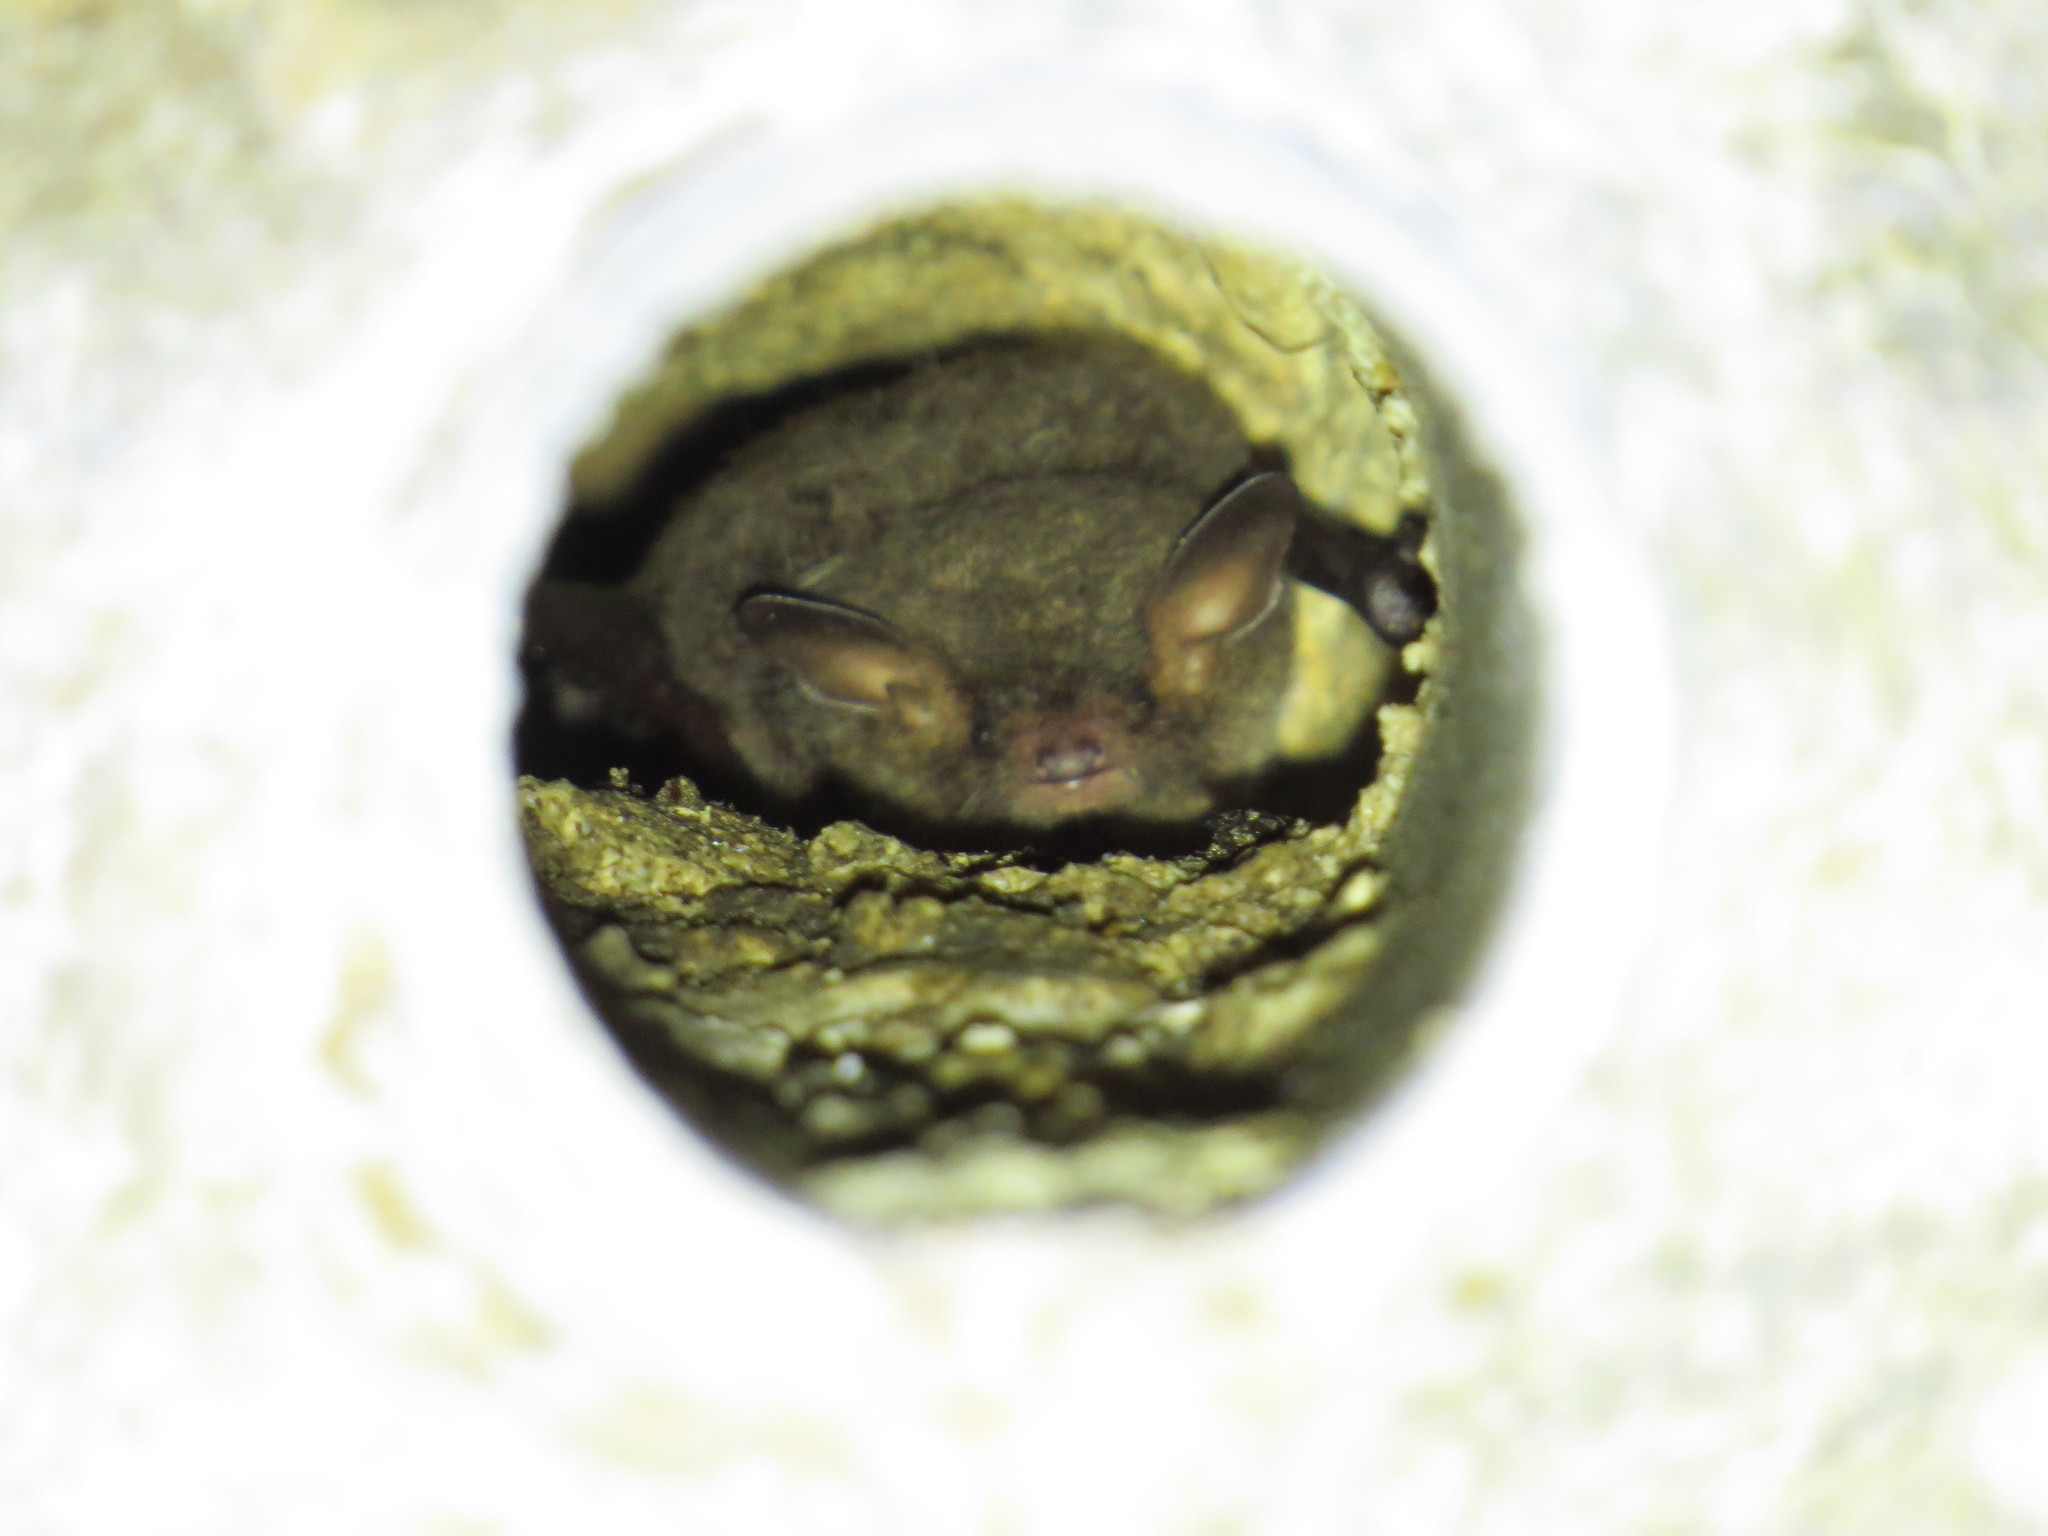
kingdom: Animalia
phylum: Chordata
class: Mammalia
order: Chiroptera
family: Vespertilionidae
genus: Myotis
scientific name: Myotis daubentonii
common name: Daubenton's myotis
